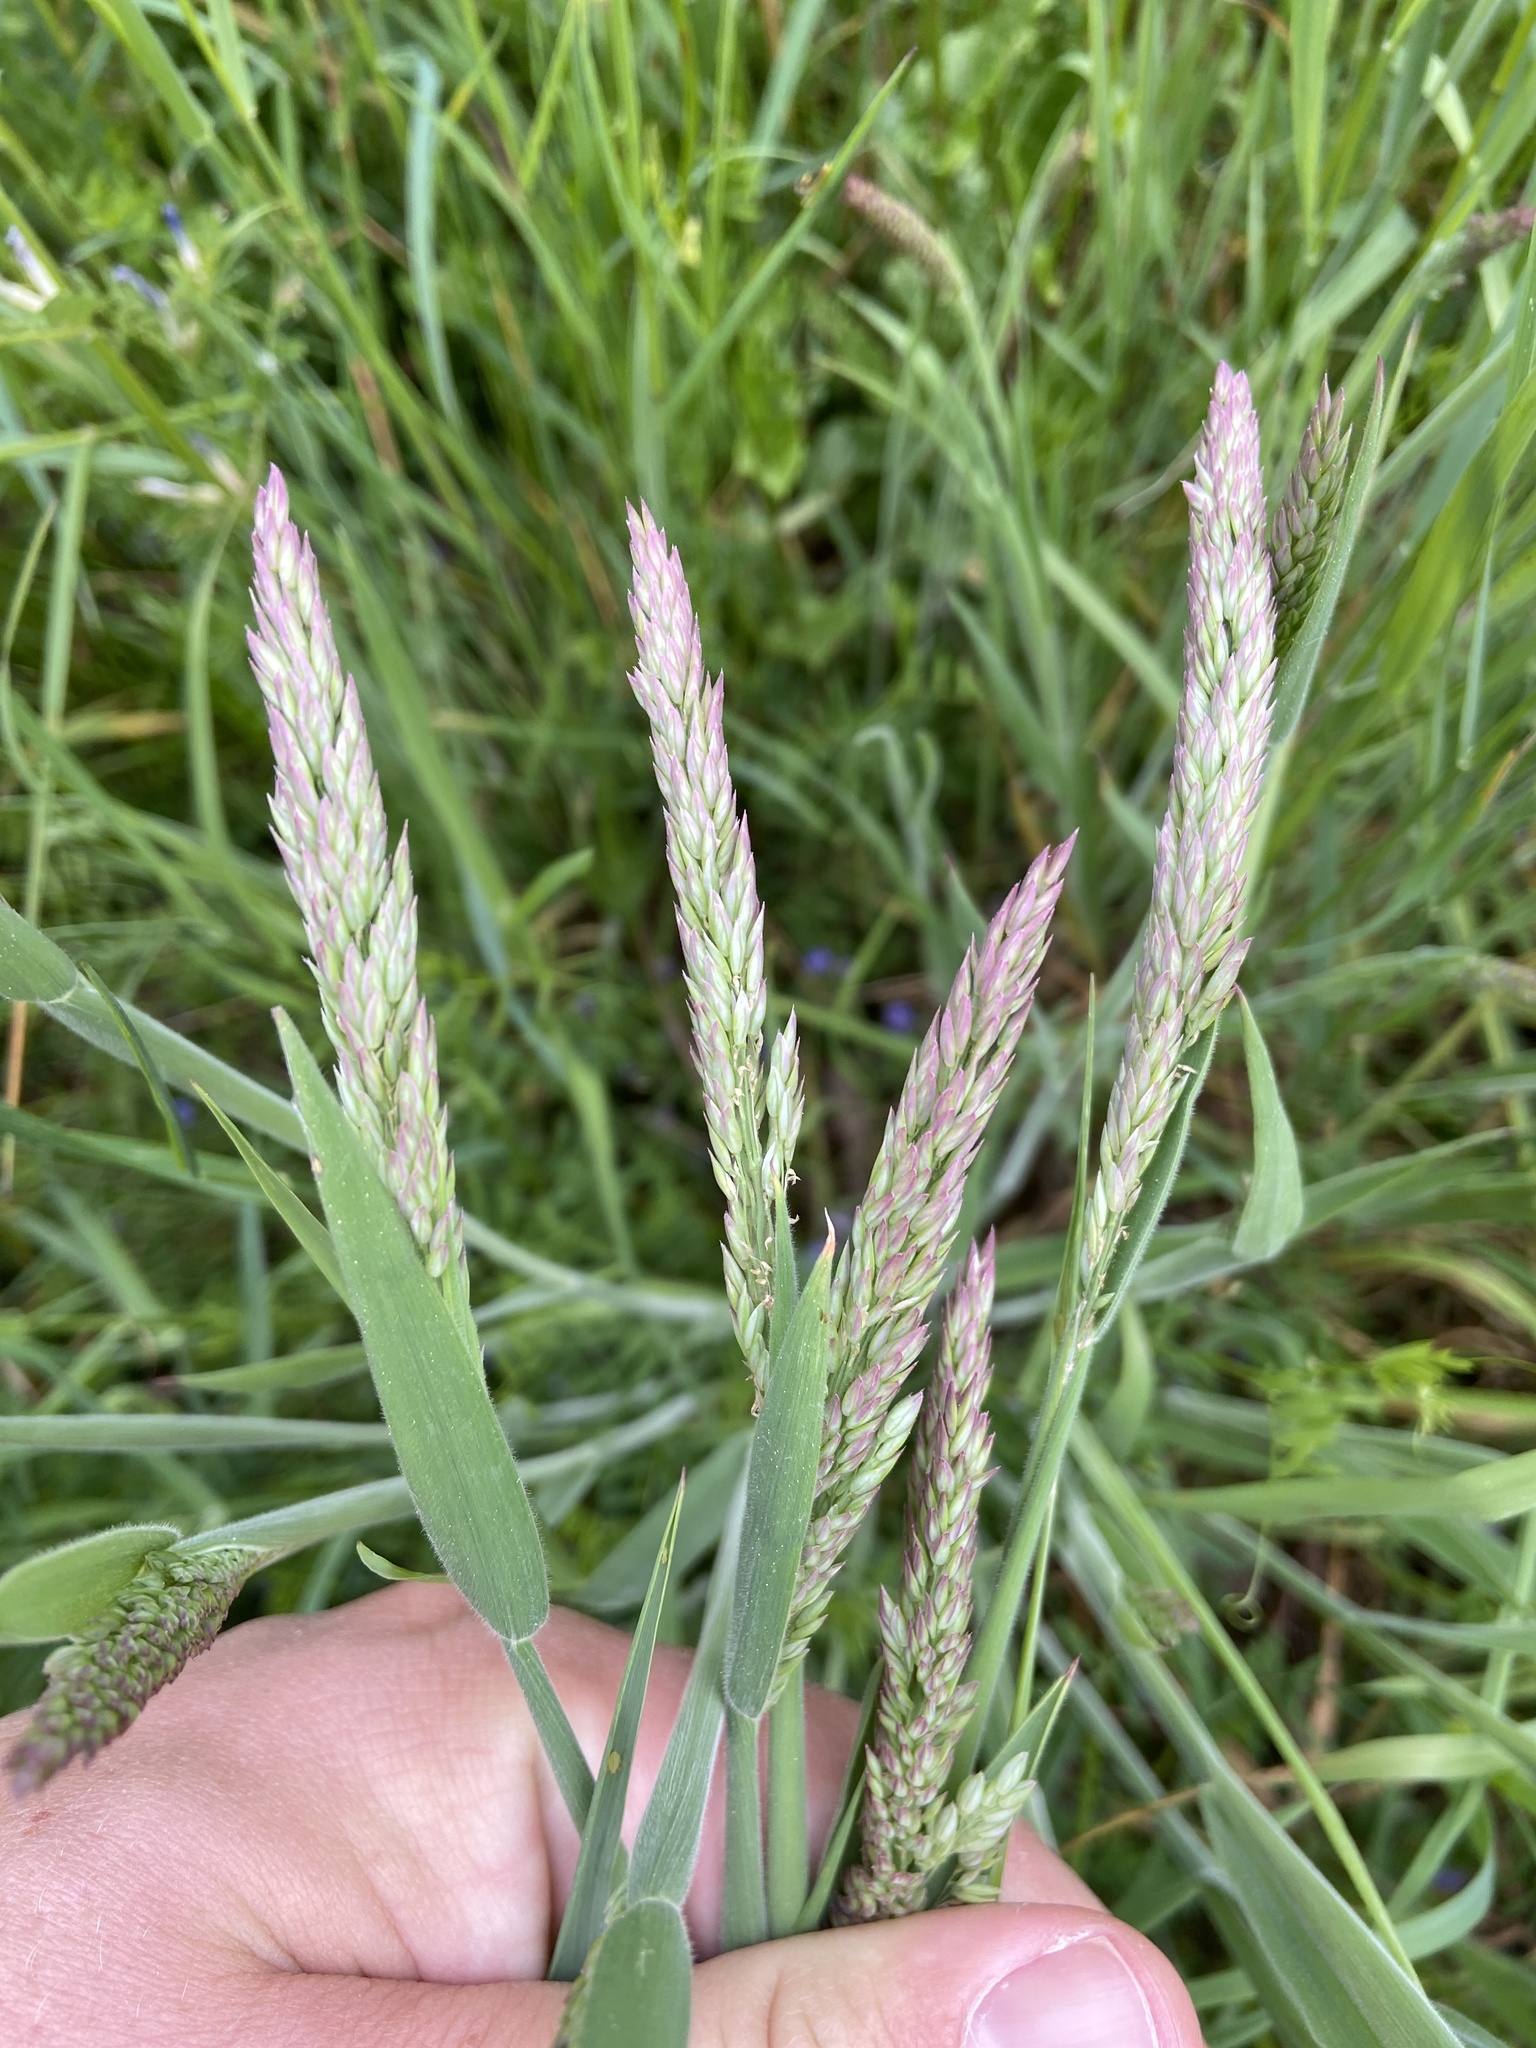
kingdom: Plantae
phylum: Tracheophyta
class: Liliopsida
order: Poales
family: Poaceae
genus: Holcus
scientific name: Holcus lanatus
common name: Yorkshire-fog
